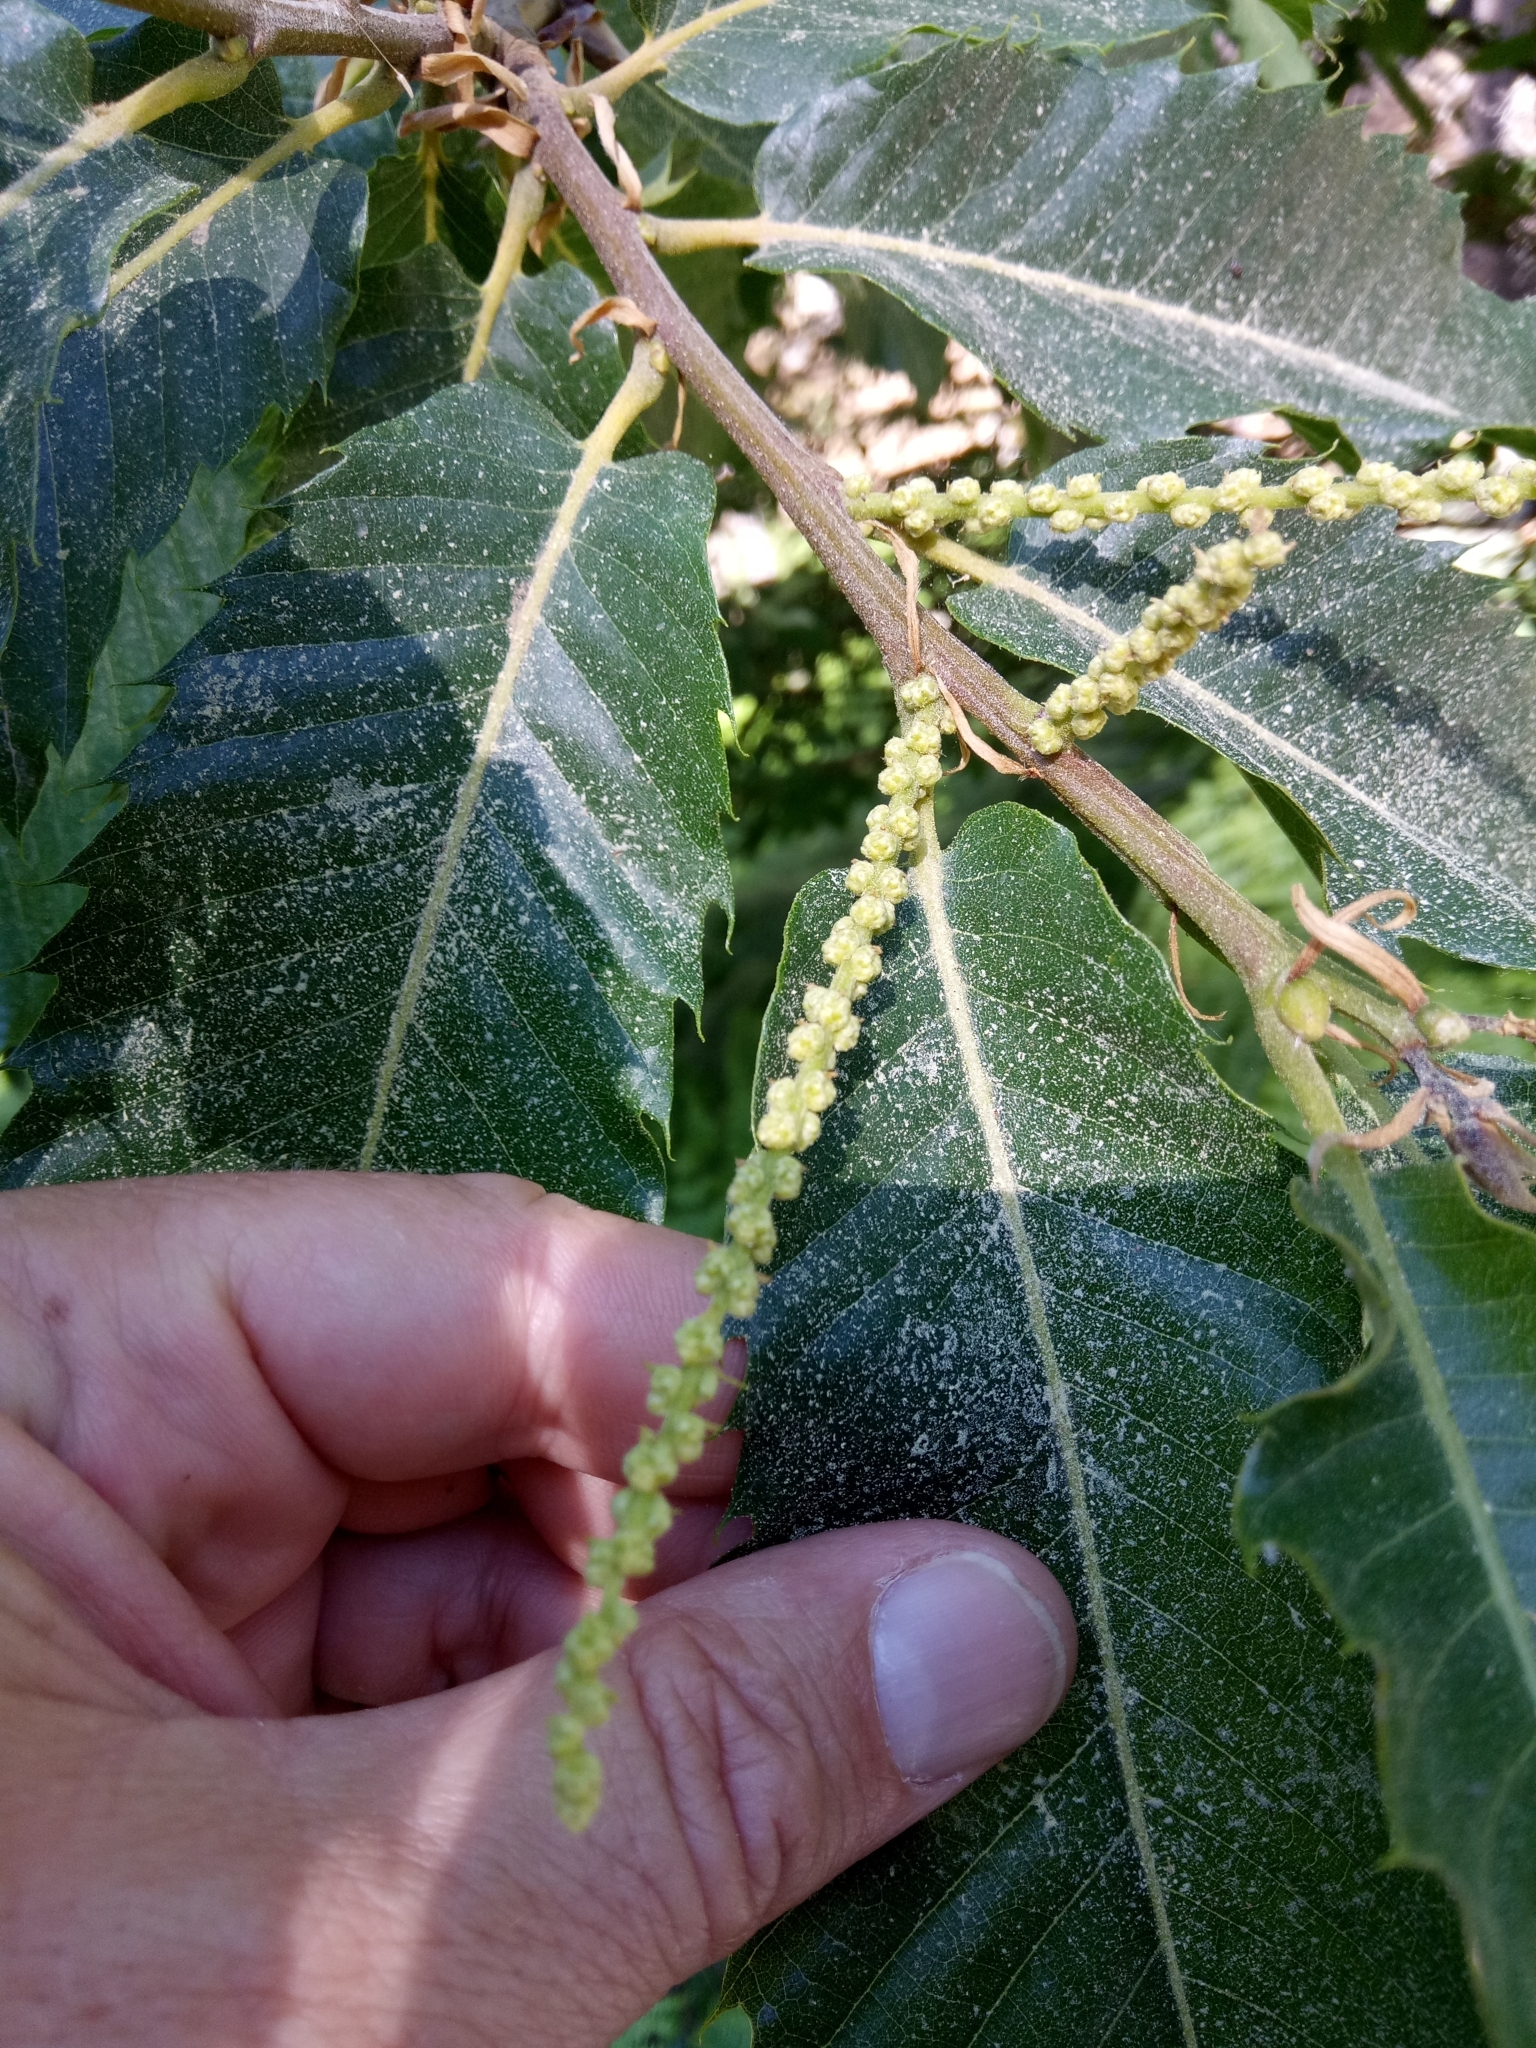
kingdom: Plantae
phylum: Tracheophyta
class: Magnoliopsida
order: Fagales
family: Fagaceae
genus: Castanea
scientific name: Castanea sativa
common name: Sweet chestnut
